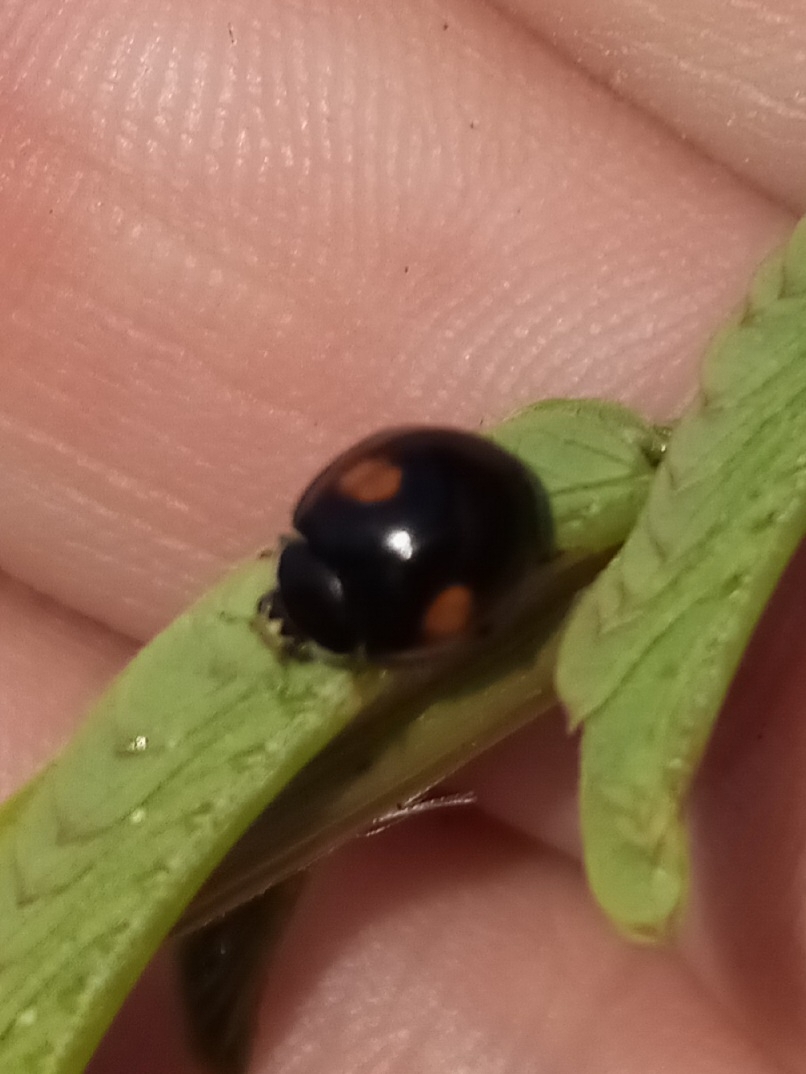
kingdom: Animalia
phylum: Arthropoda
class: Insecta
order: Coleoptera
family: Coccinellidae
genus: Olla
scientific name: Olla v-nigrum
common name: Ashy gray lady beetle
